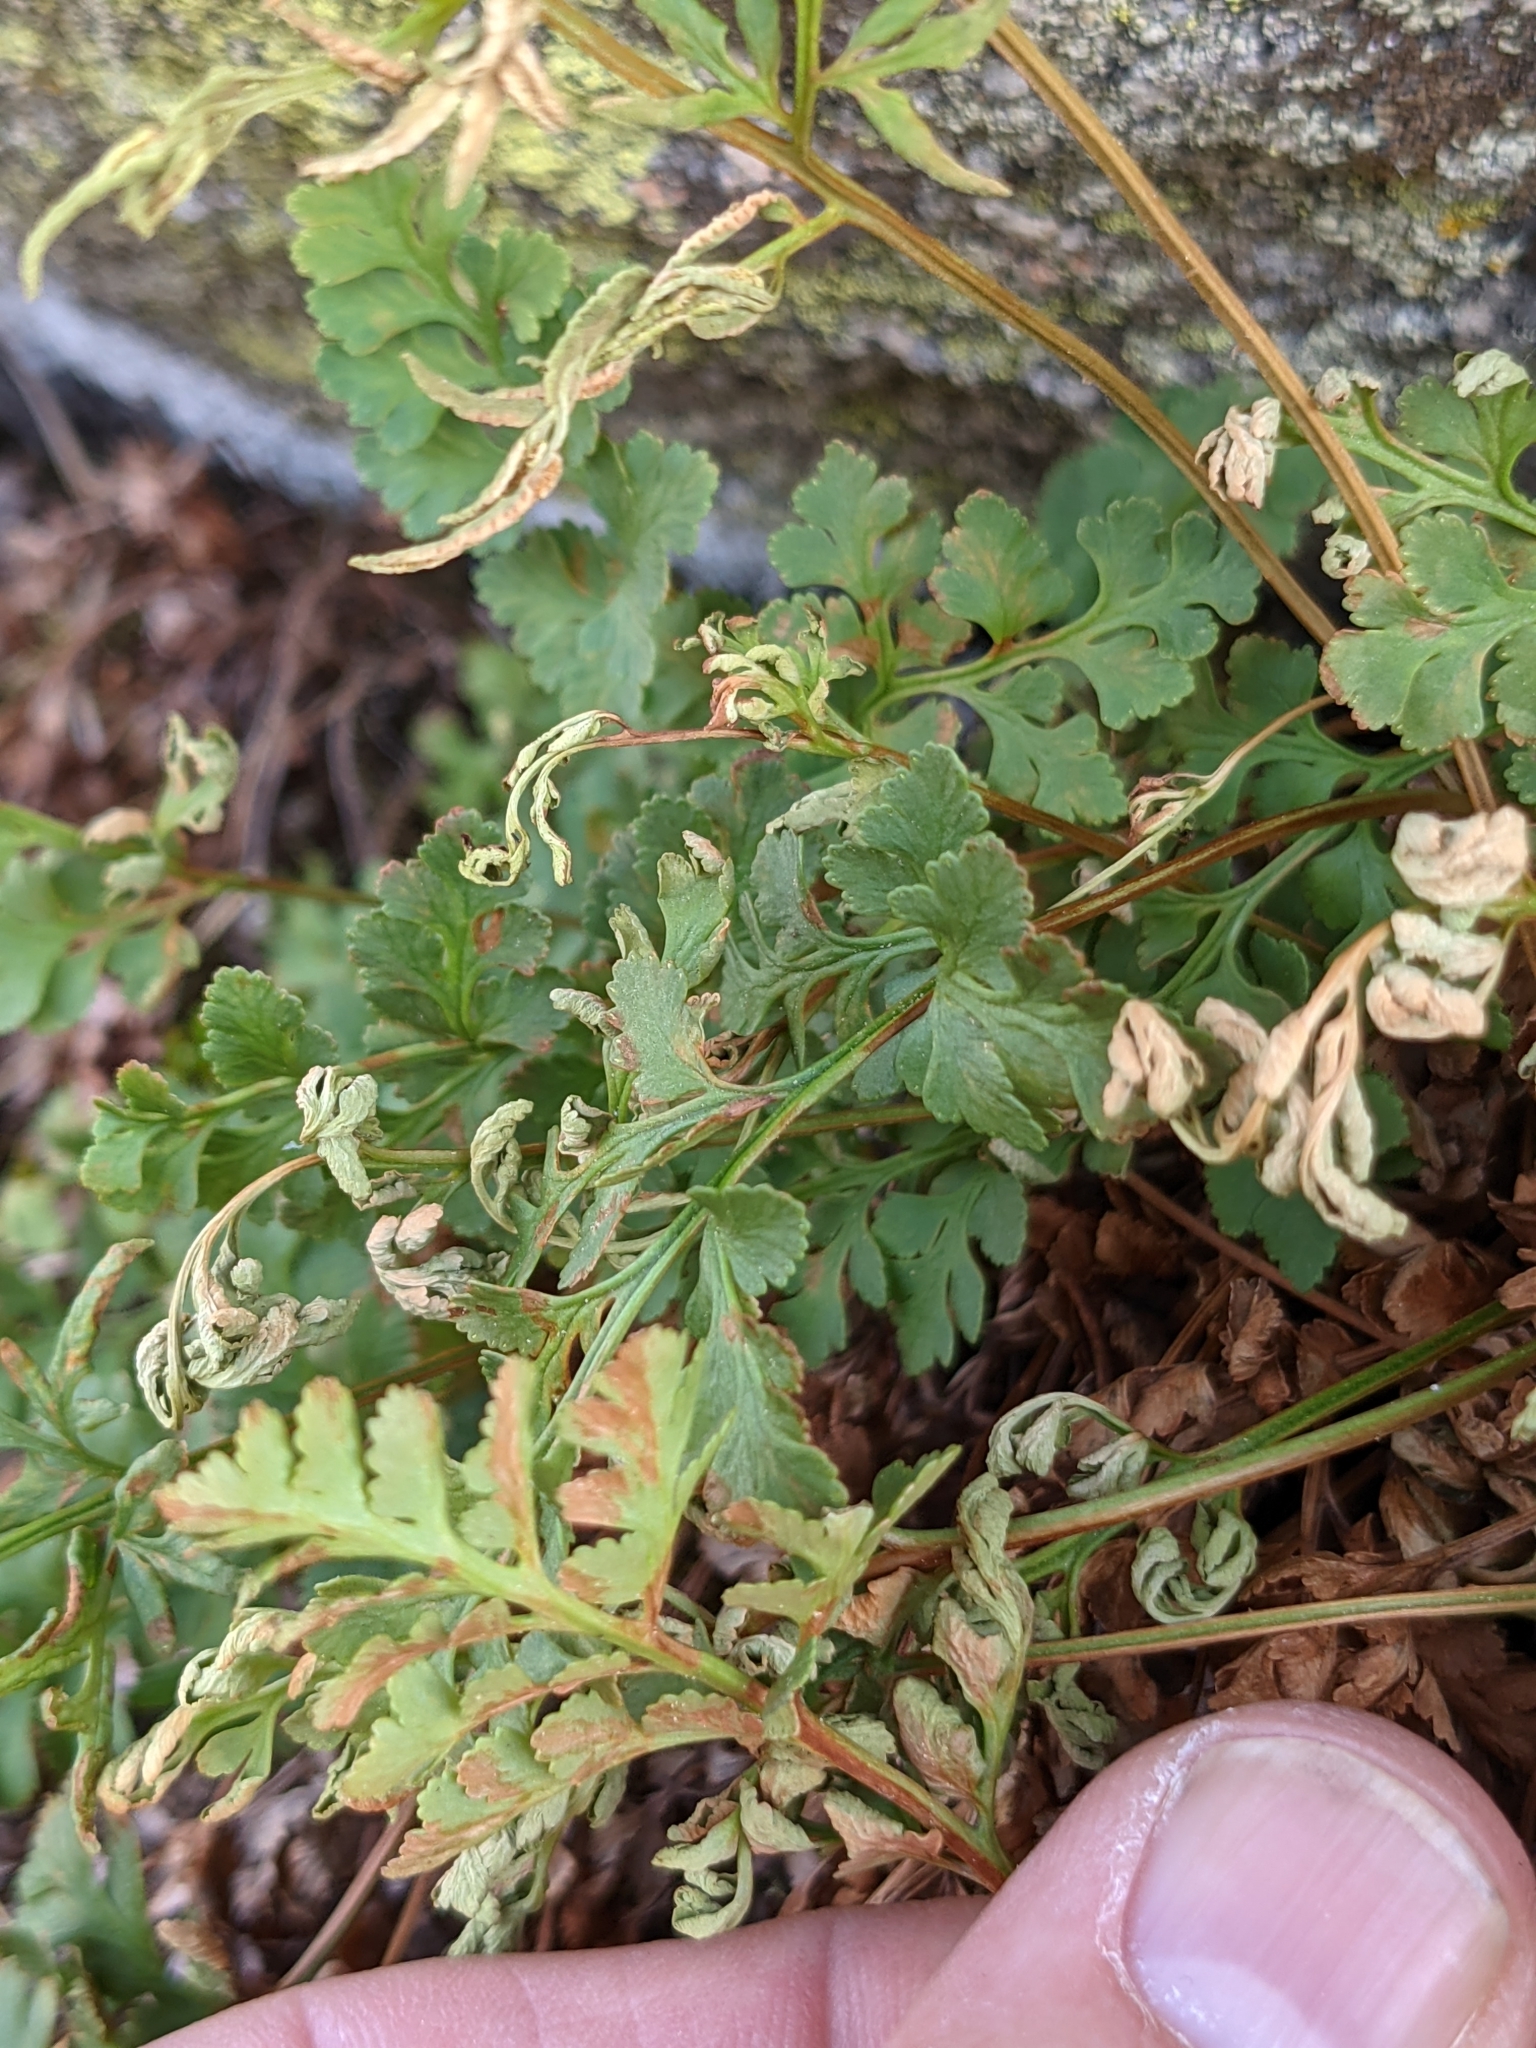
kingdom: Plantae
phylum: Tracheophyta
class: Polypodiopsida
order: Polypodiales
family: Pteridaceae
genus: Cryptogramma
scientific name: Cryptogramma acrostichoides
